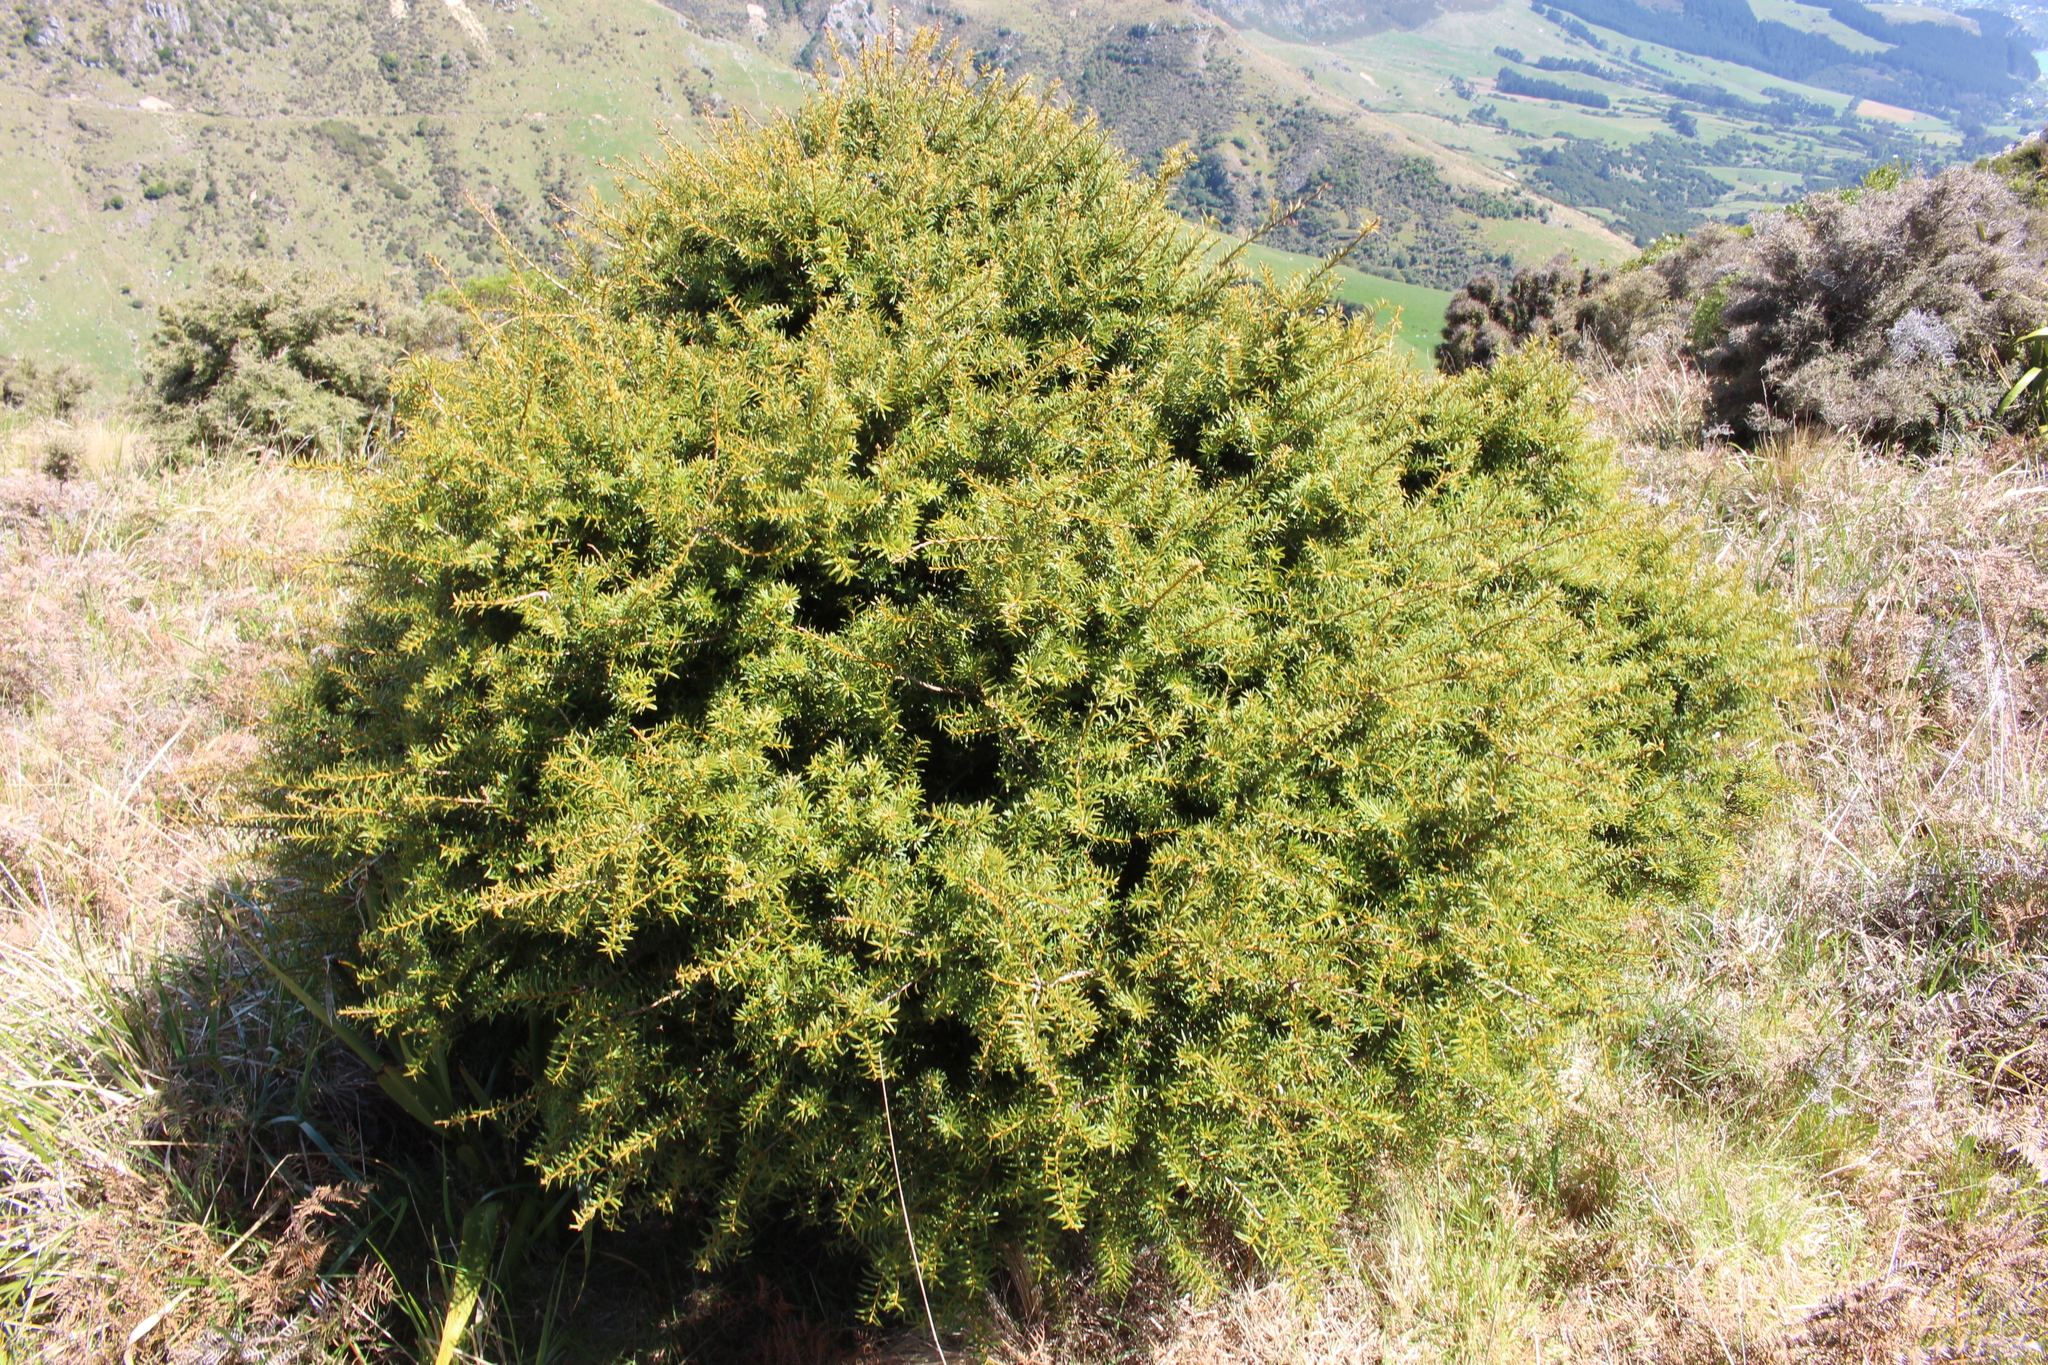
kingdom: Plantae
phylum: Tracheophyta
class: Pinopsida
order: Pinales
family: Podocarpaceae
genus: Podocarpus
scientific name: Podocarpus laetus
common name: Hall's totara
